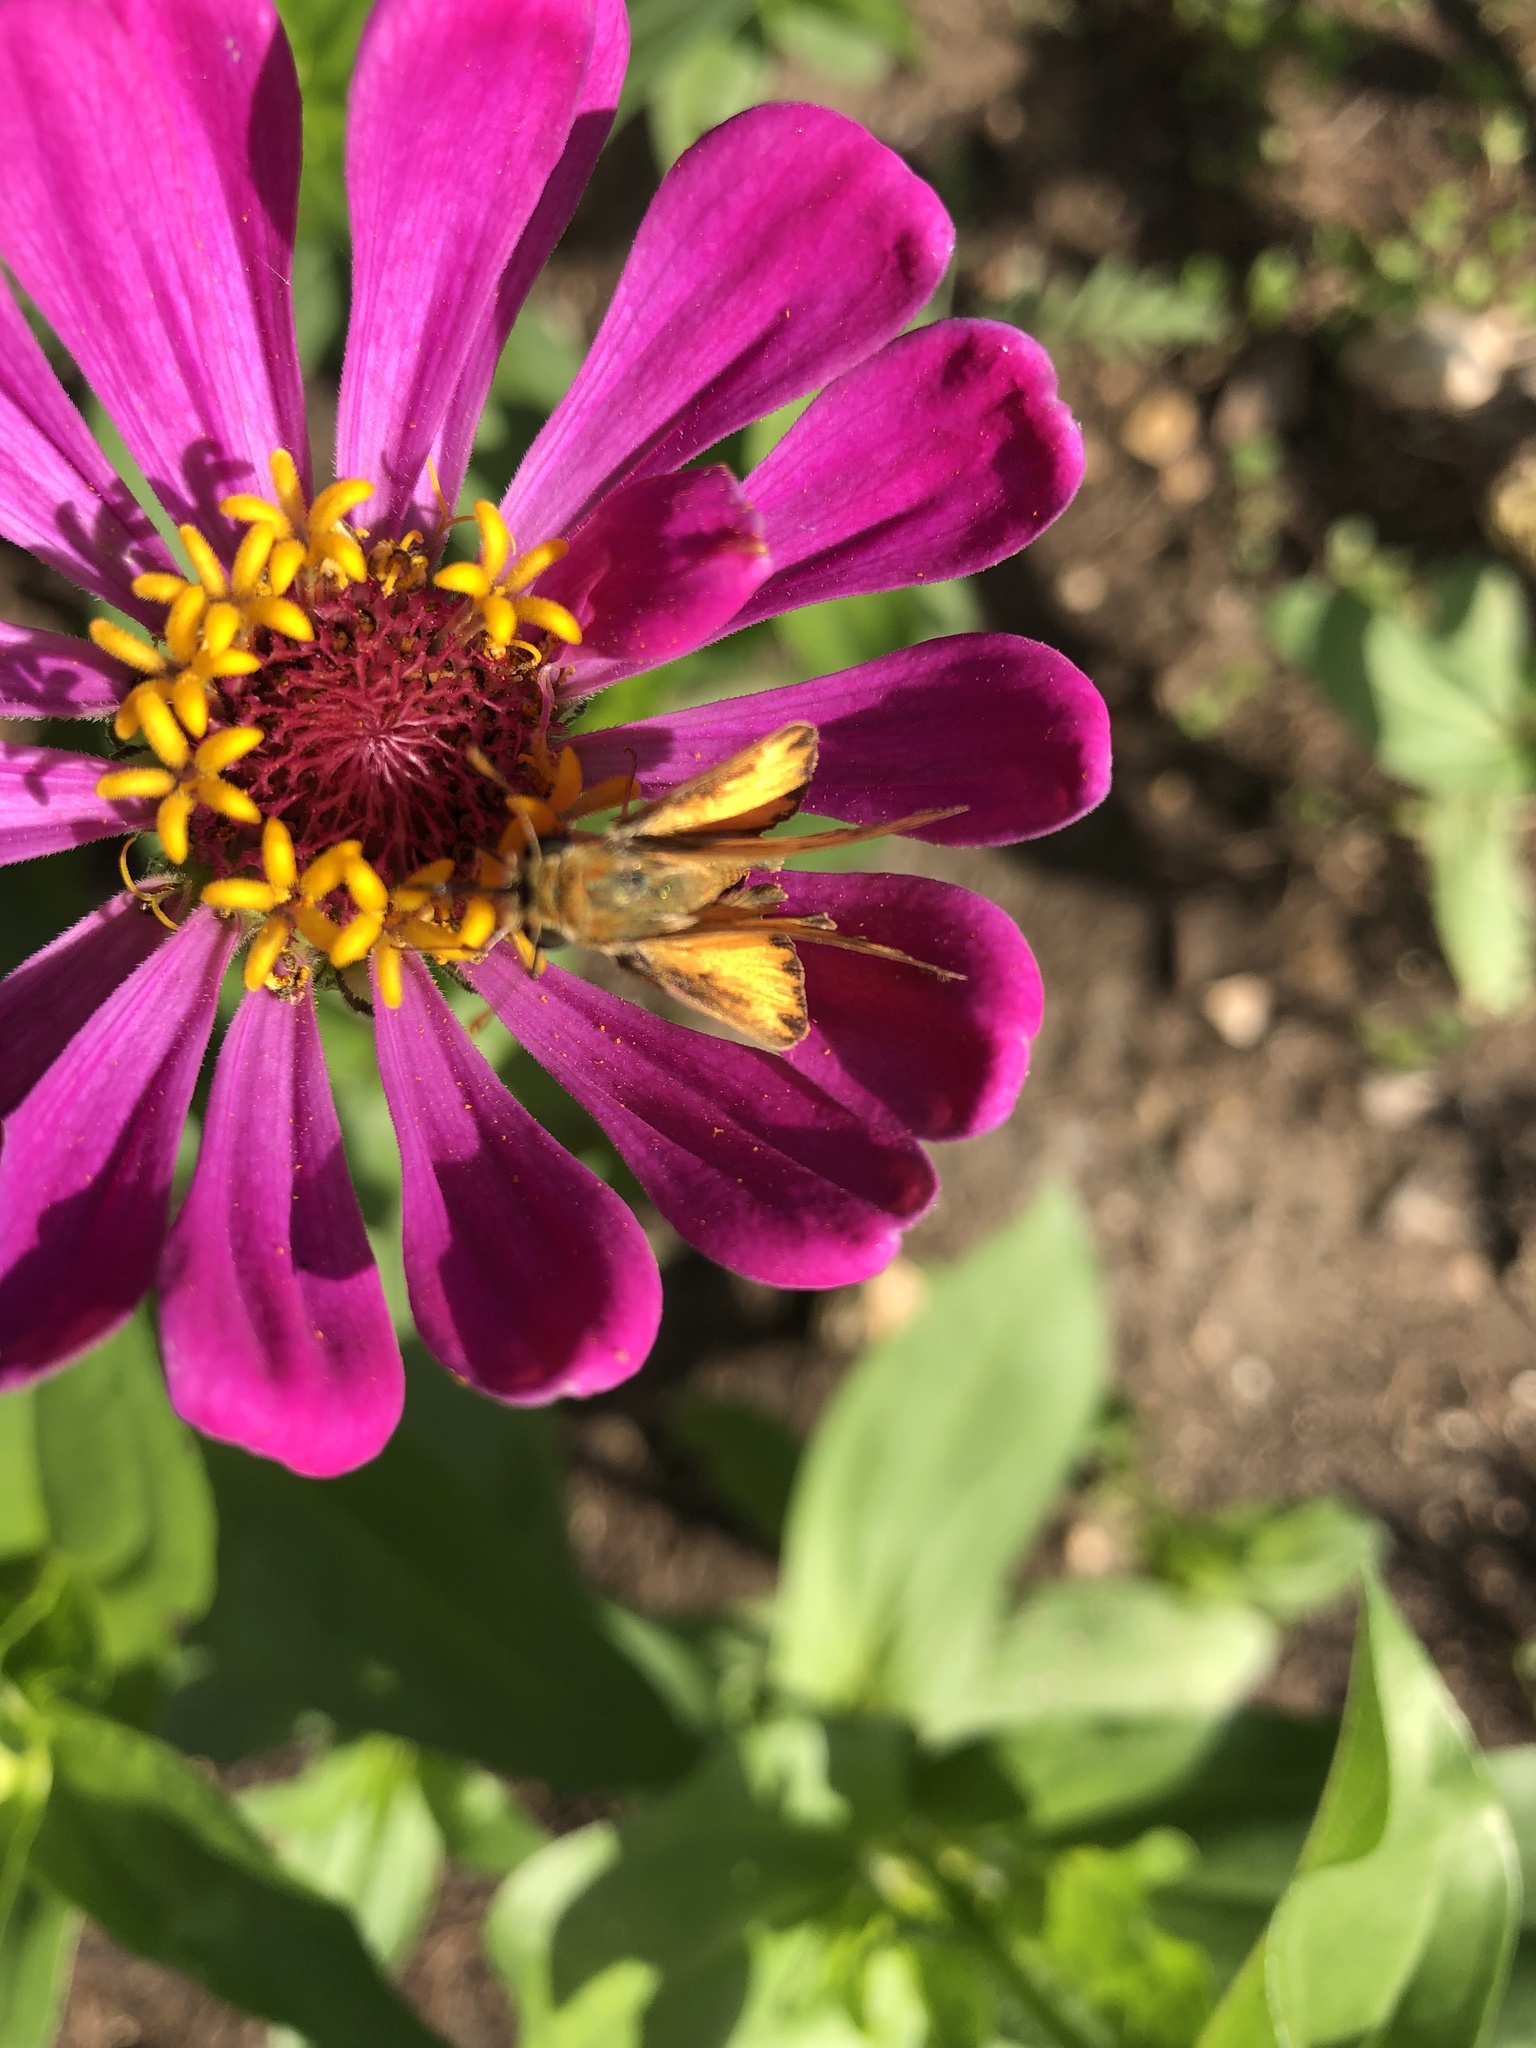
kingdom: Animalia
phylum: Arthropoda
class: Insecta
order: Lepidoptera
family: Hesperiidae
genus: Hylephila
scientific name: Hylephila phyleus
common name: Fiery skipper
